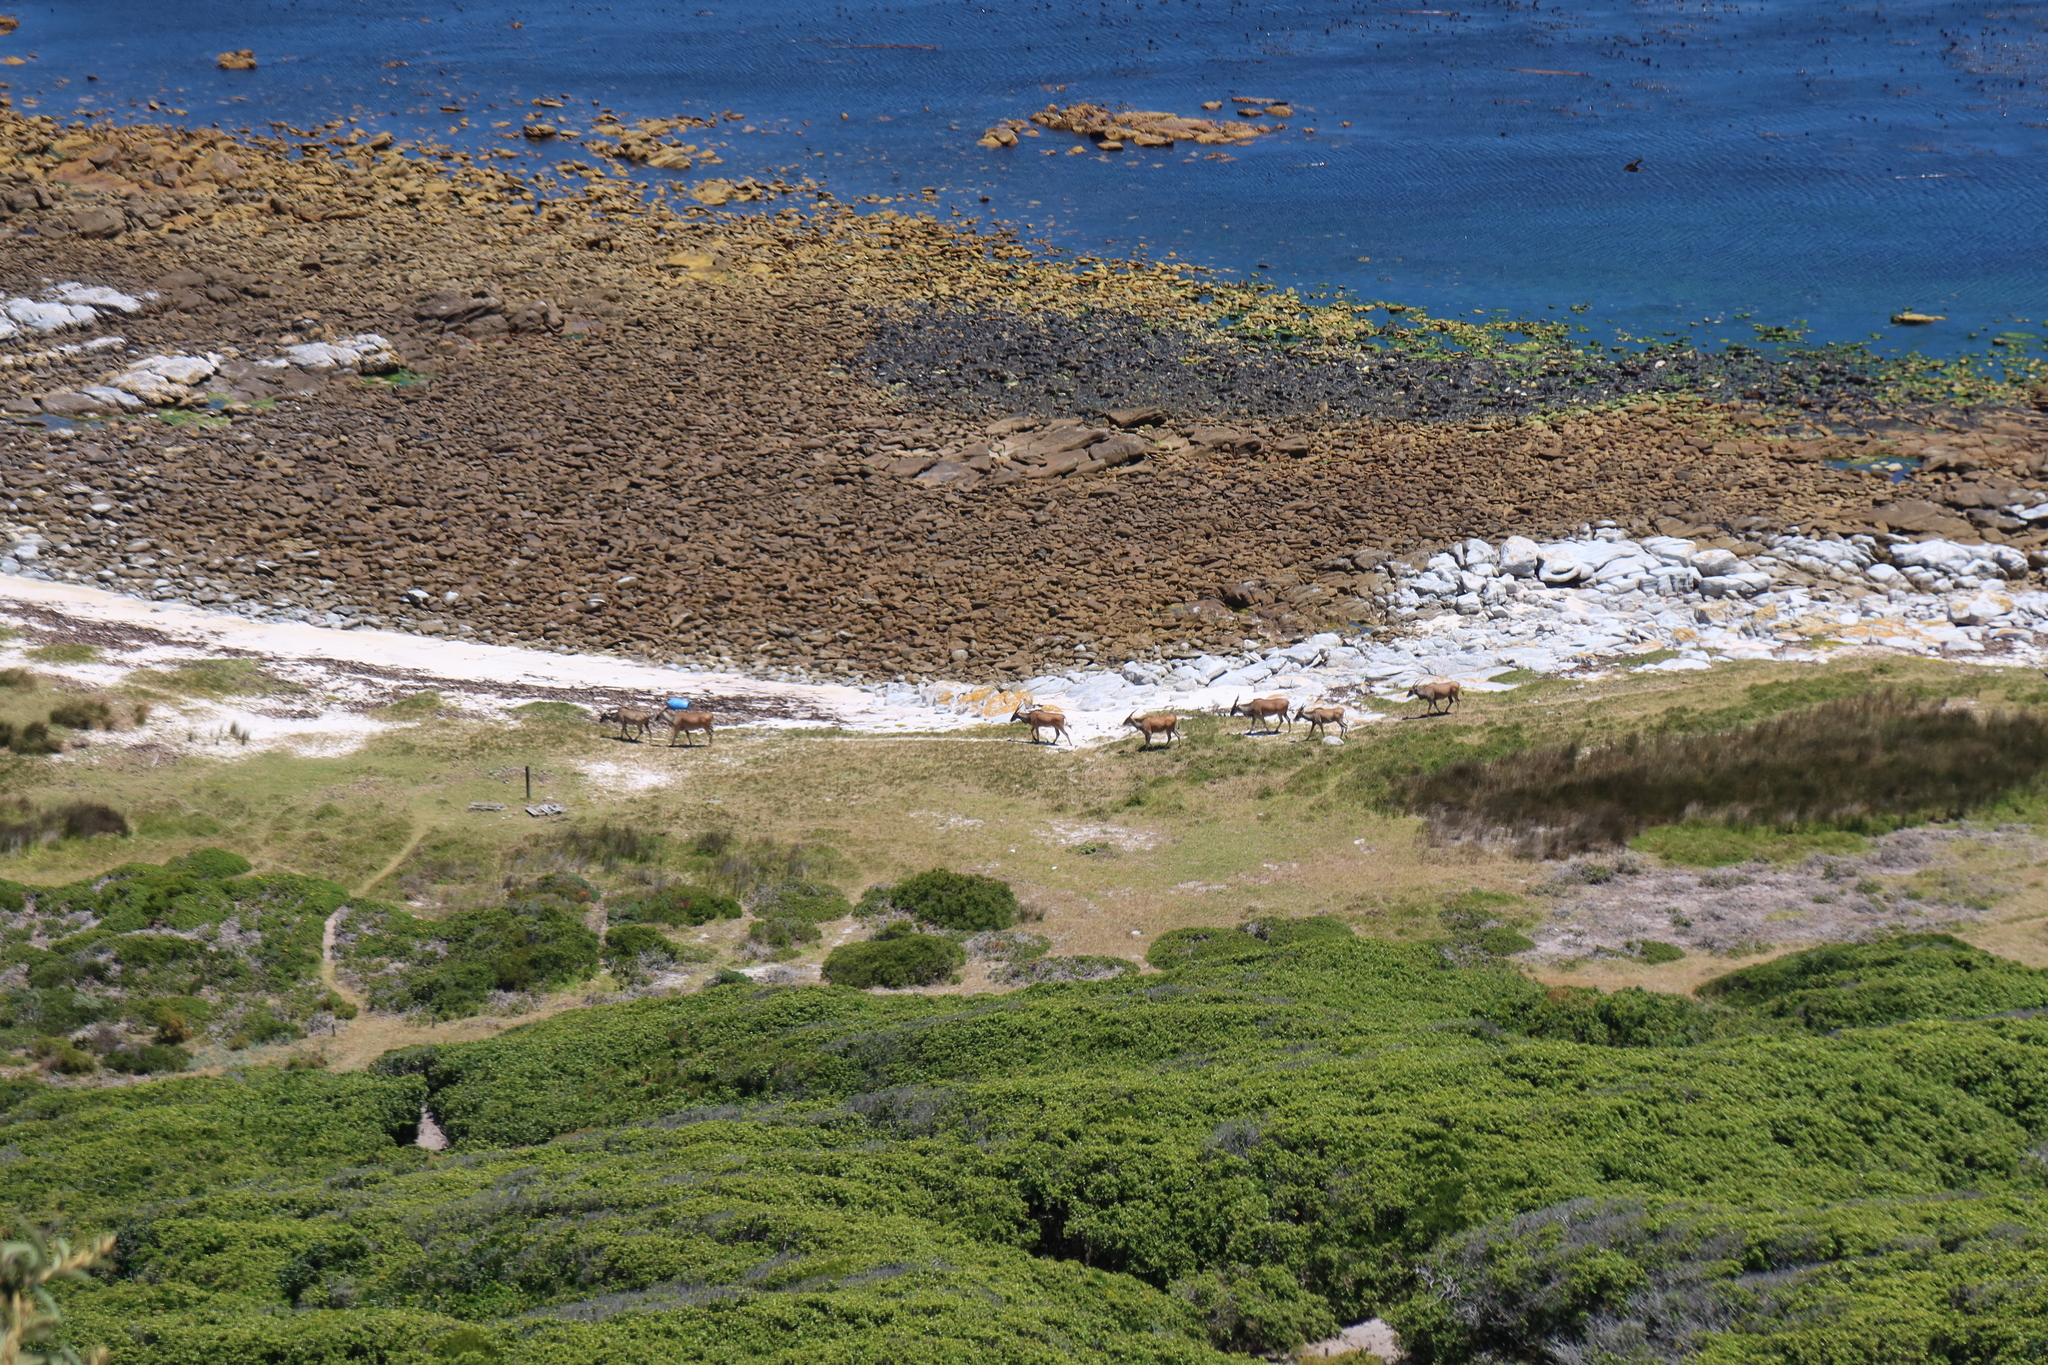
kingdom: Animalia
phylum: Chordata
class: Mammalia
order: Artiodactyla
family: Bovidae
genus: Taurotragus
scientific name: Taurotragus oryx
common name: Common eland
